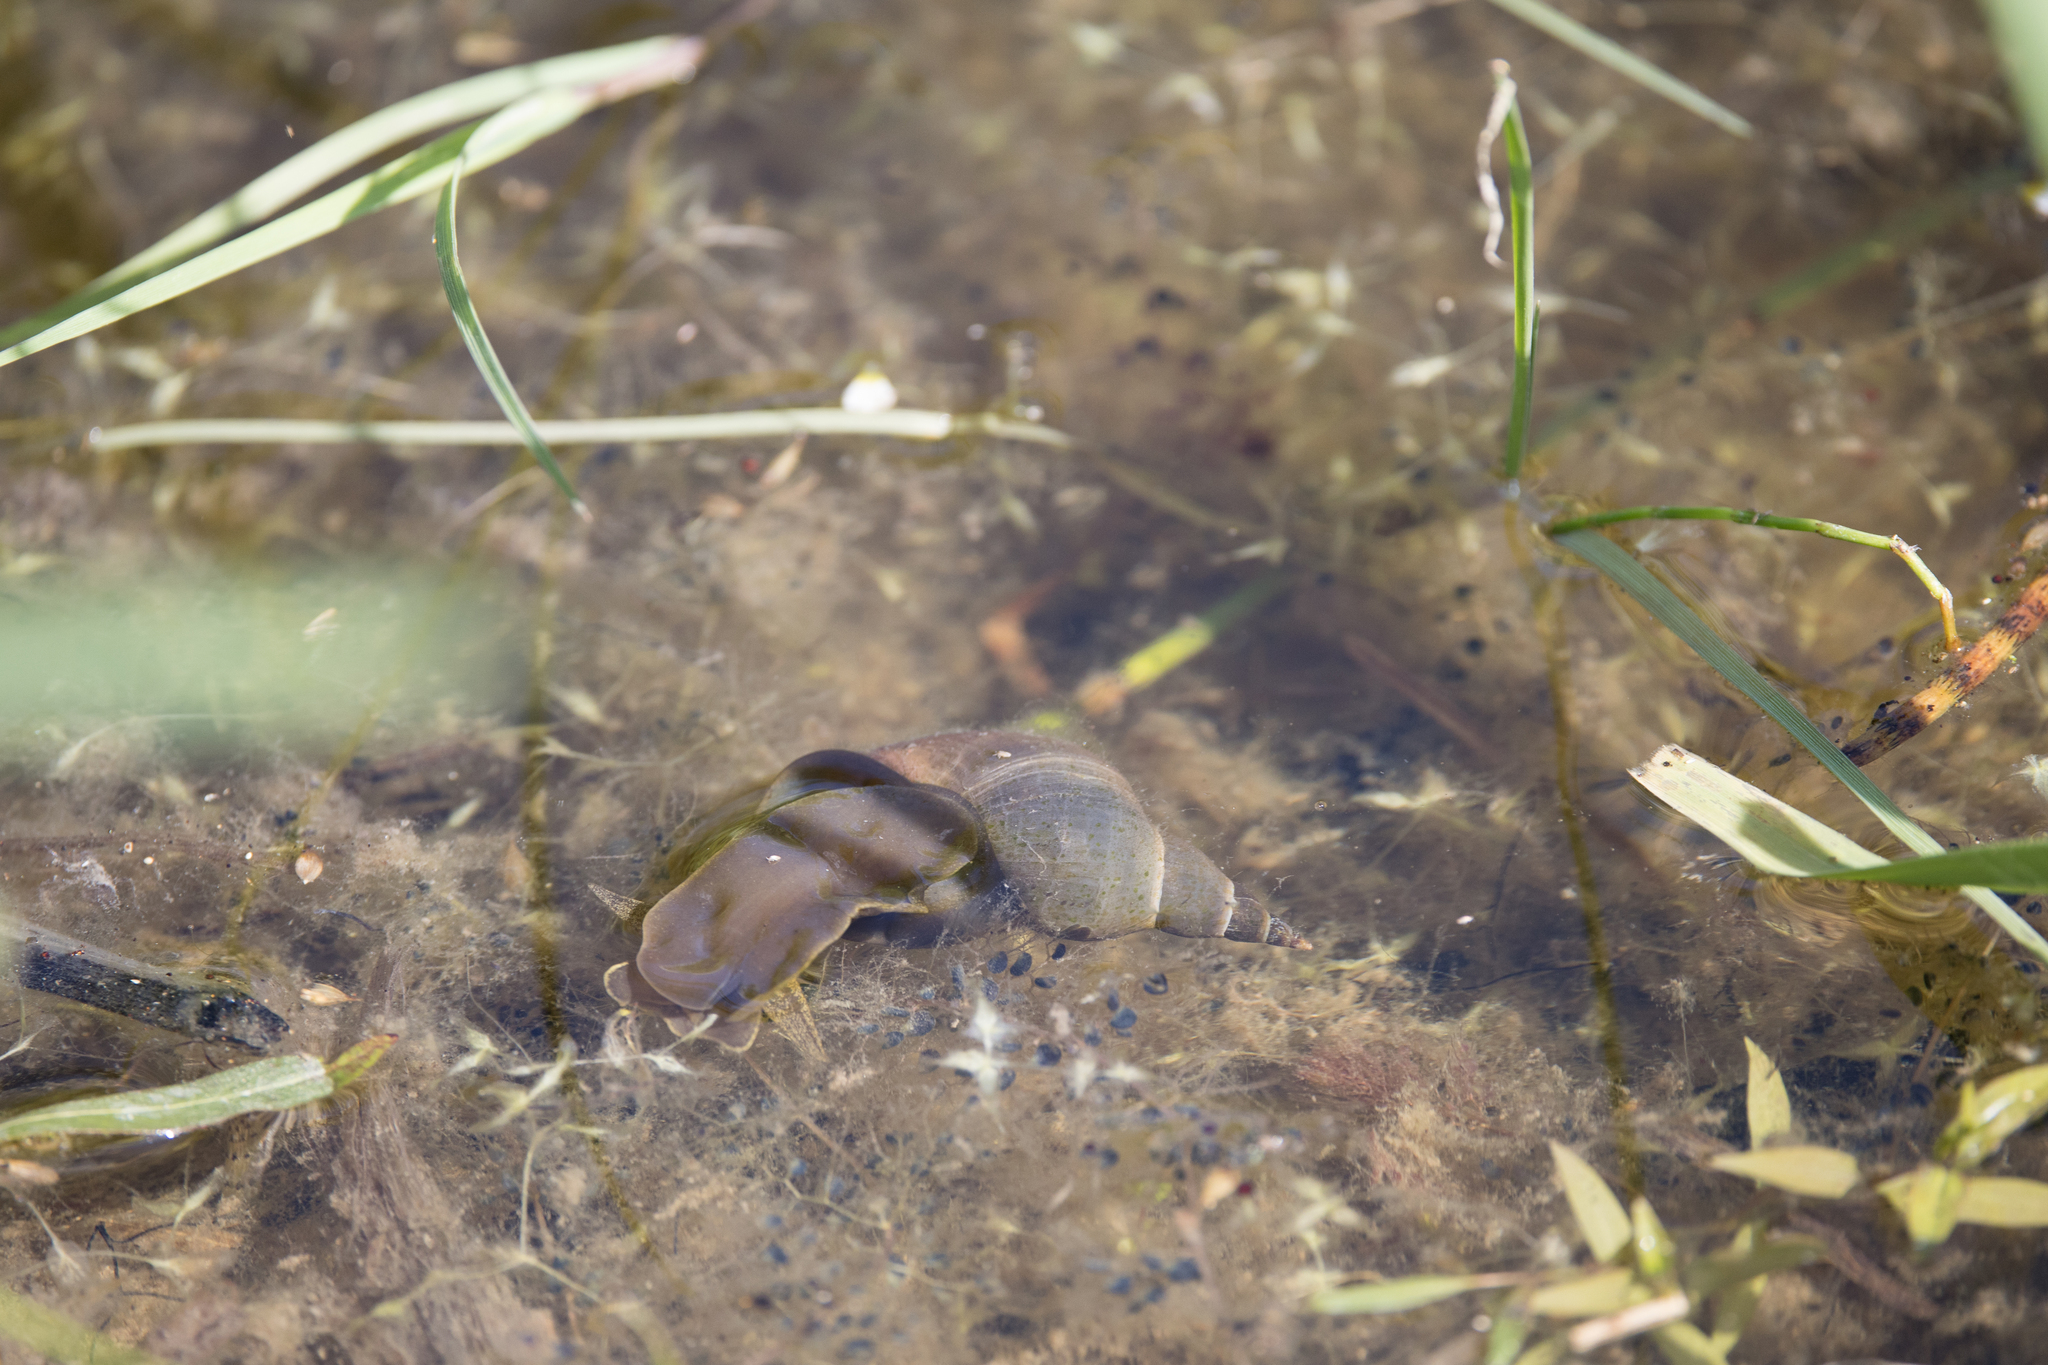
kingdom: Animalia
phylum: Mollusca
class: Gastropoda
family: Lymnaeidae
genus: Lymnaea
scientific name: Lymnaea stagnalis
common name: Great pond snail
